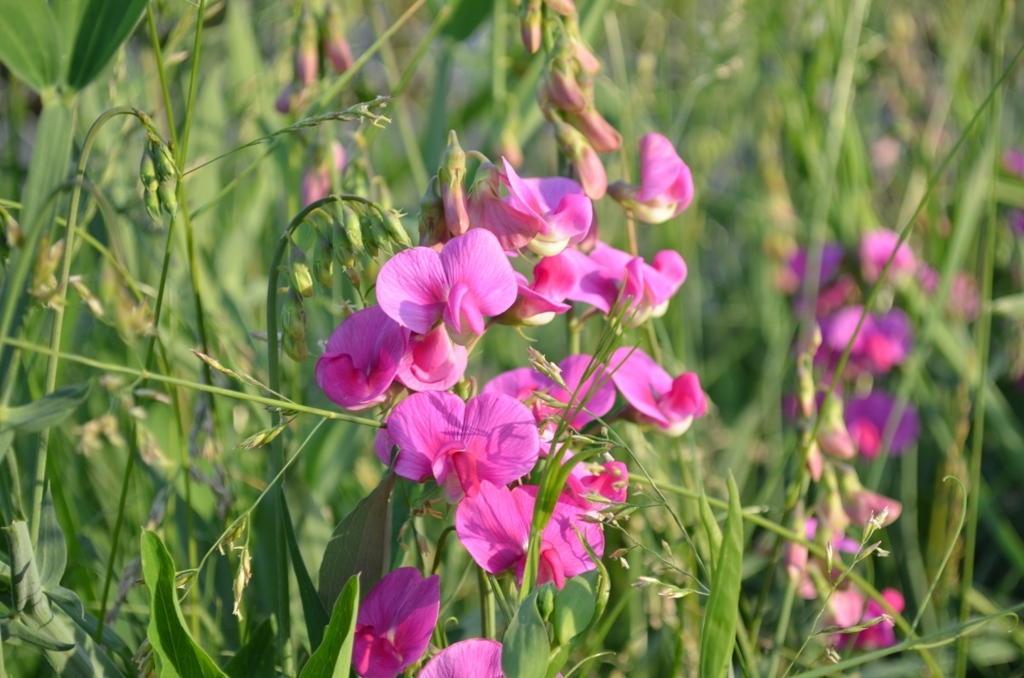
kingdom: Plantae
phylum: Tracheophyta
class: Magnoliopsida
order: Fabales
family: Fabaceae
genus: Lathyrus
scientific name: Lathyrus latifolius
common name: Perennial pea
